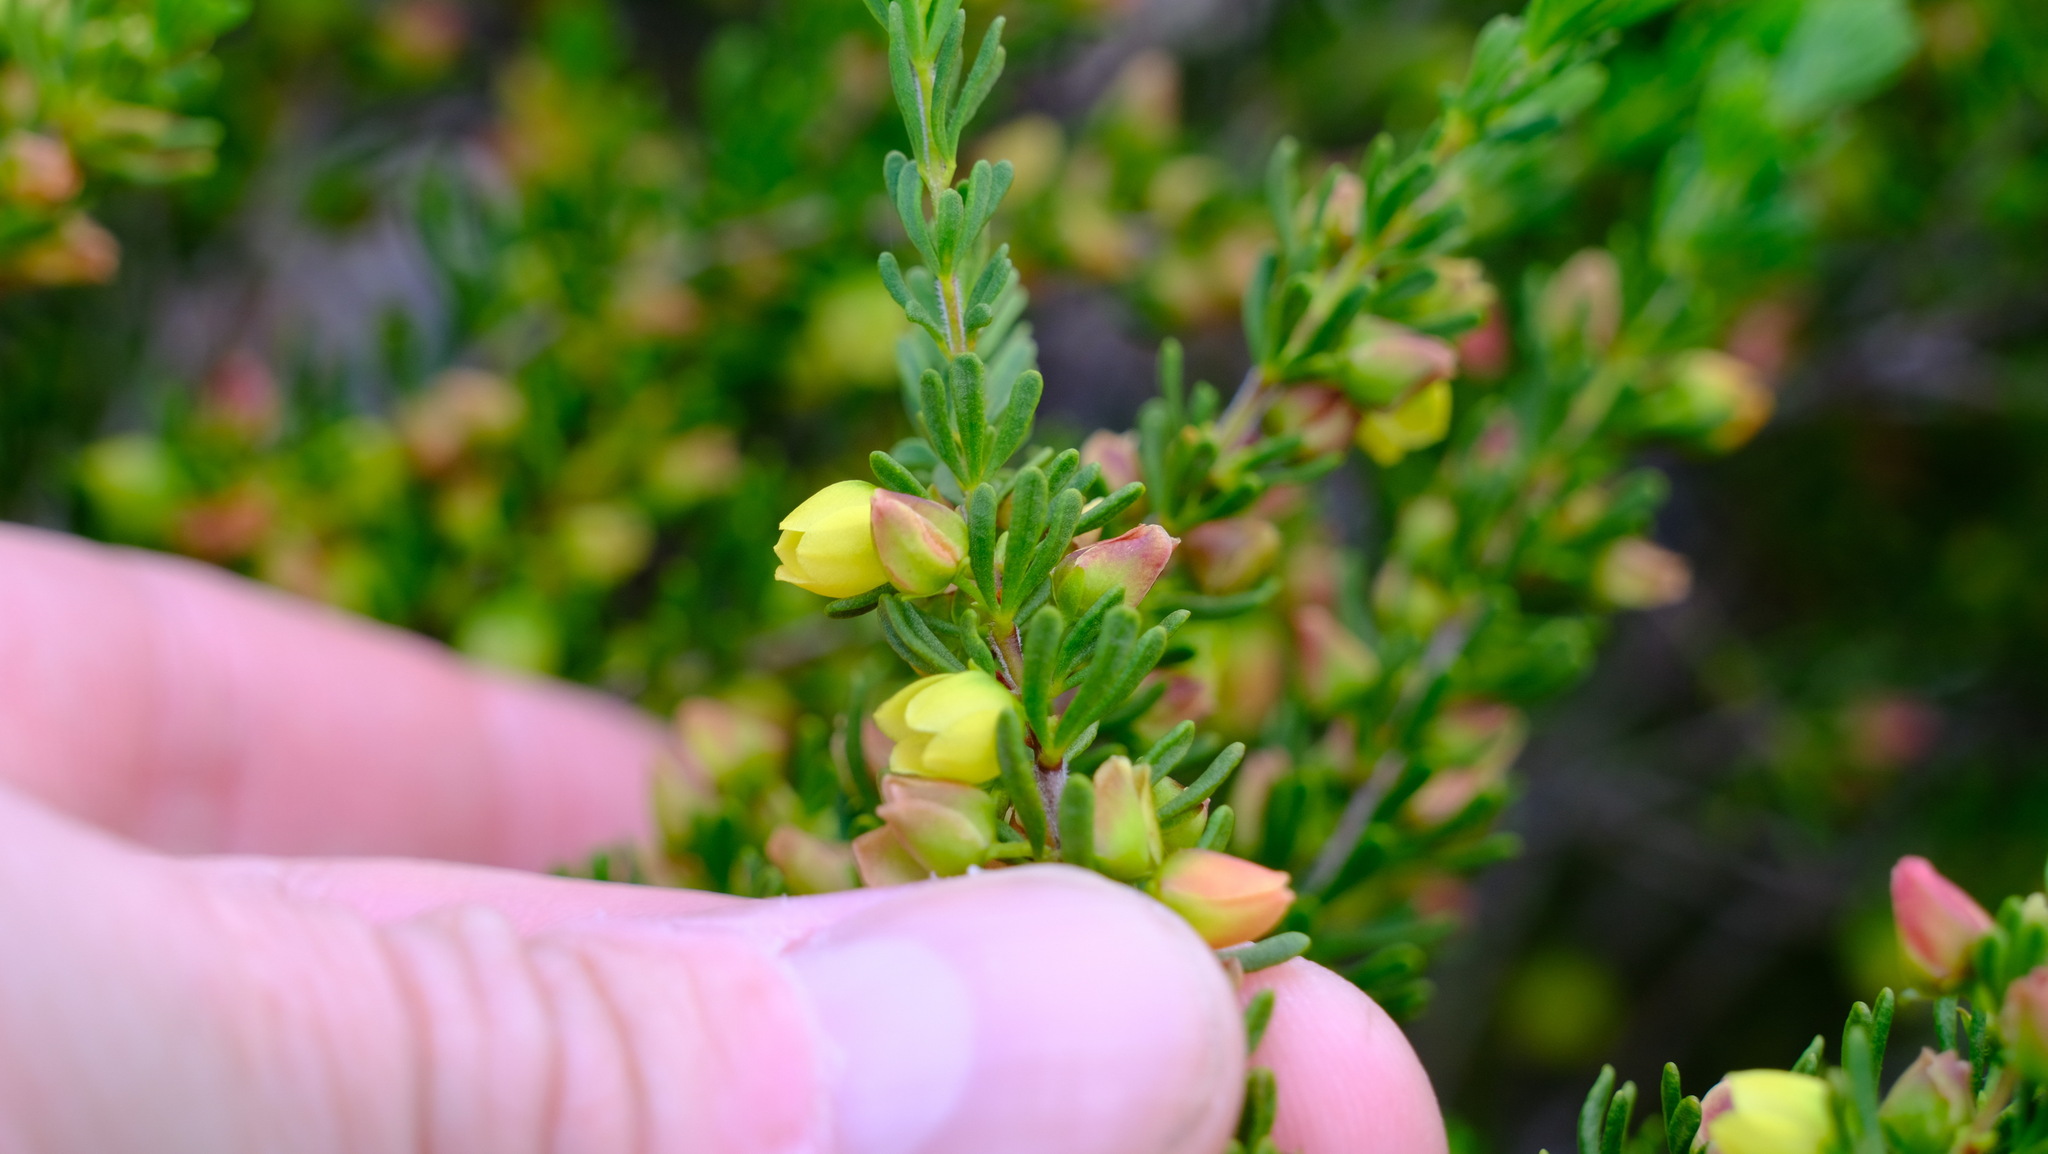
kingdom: Plantae
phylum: Tracheophyta
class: Magnoliopsida
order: Sapindales
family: Rutaceae
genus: Boronia
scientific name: Boronia purdieana
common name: Winter boronia
